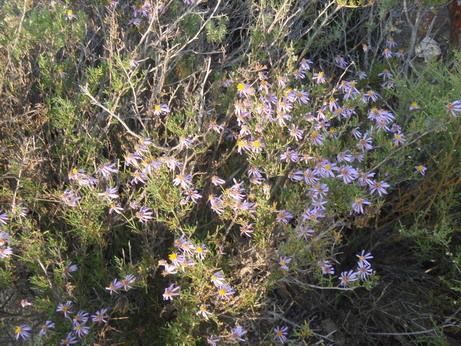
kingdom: Plantae
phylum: Tracheophyta
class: Magnoliopsida
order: Asterales
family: Asteraceae
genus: Felicia
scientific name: Felicia filifolia
